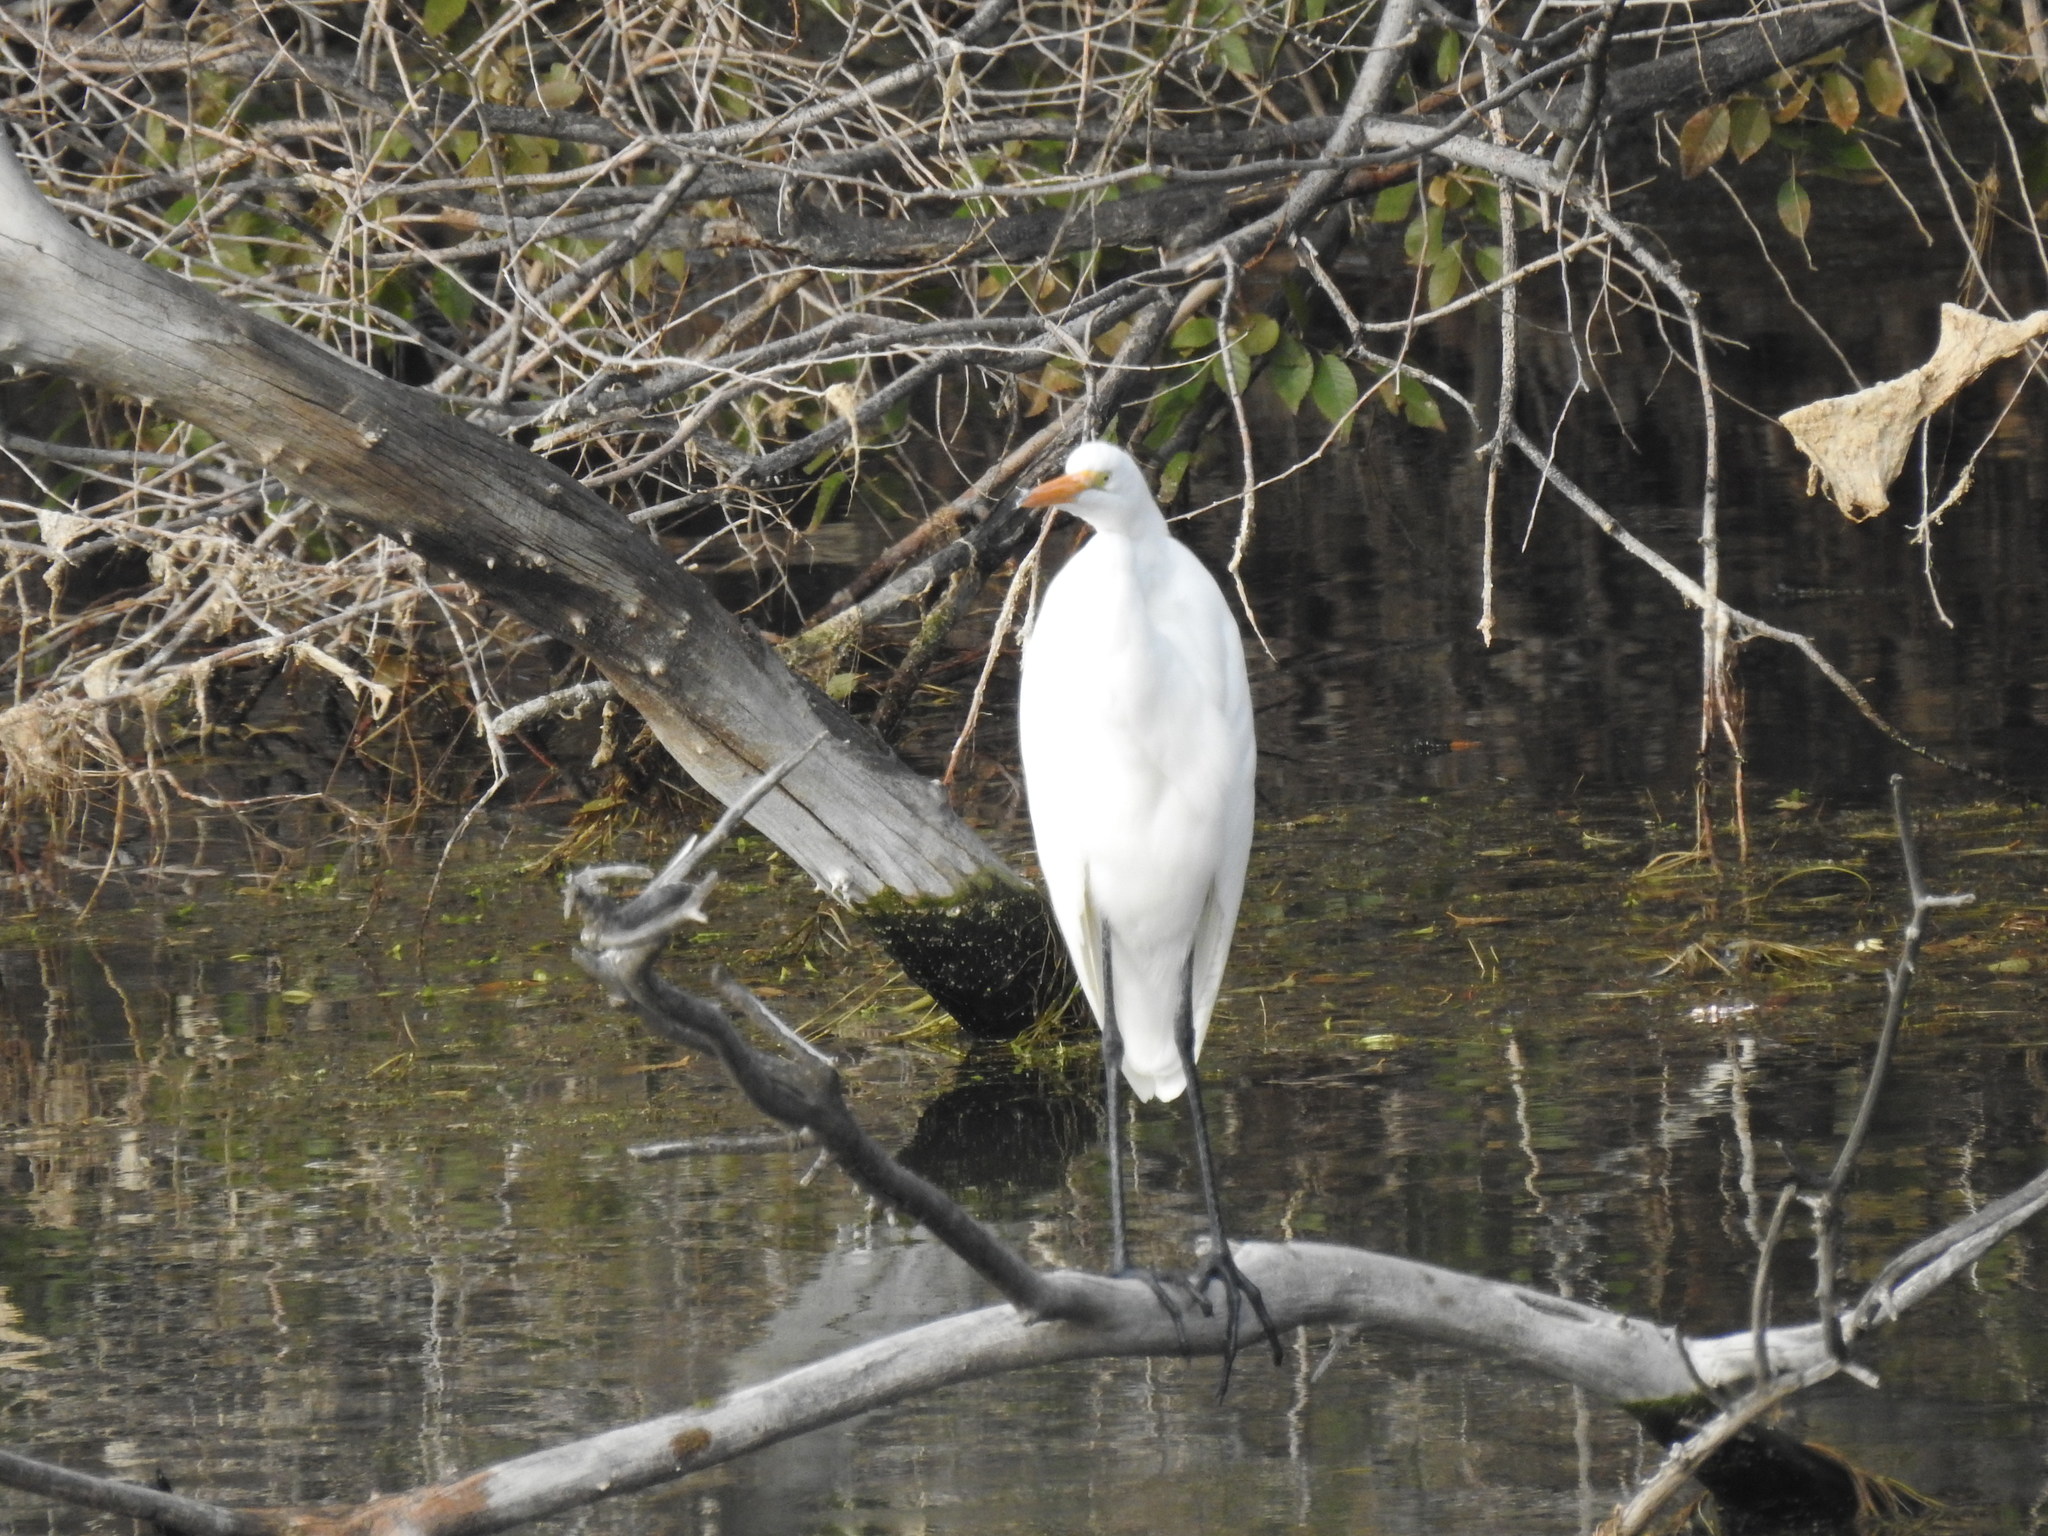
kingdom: Animalia
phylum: Chordata
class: Aves
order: Pelecaniformes
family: Ardeidae
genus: Ardea
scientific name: Ardea alba
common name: Great egret
